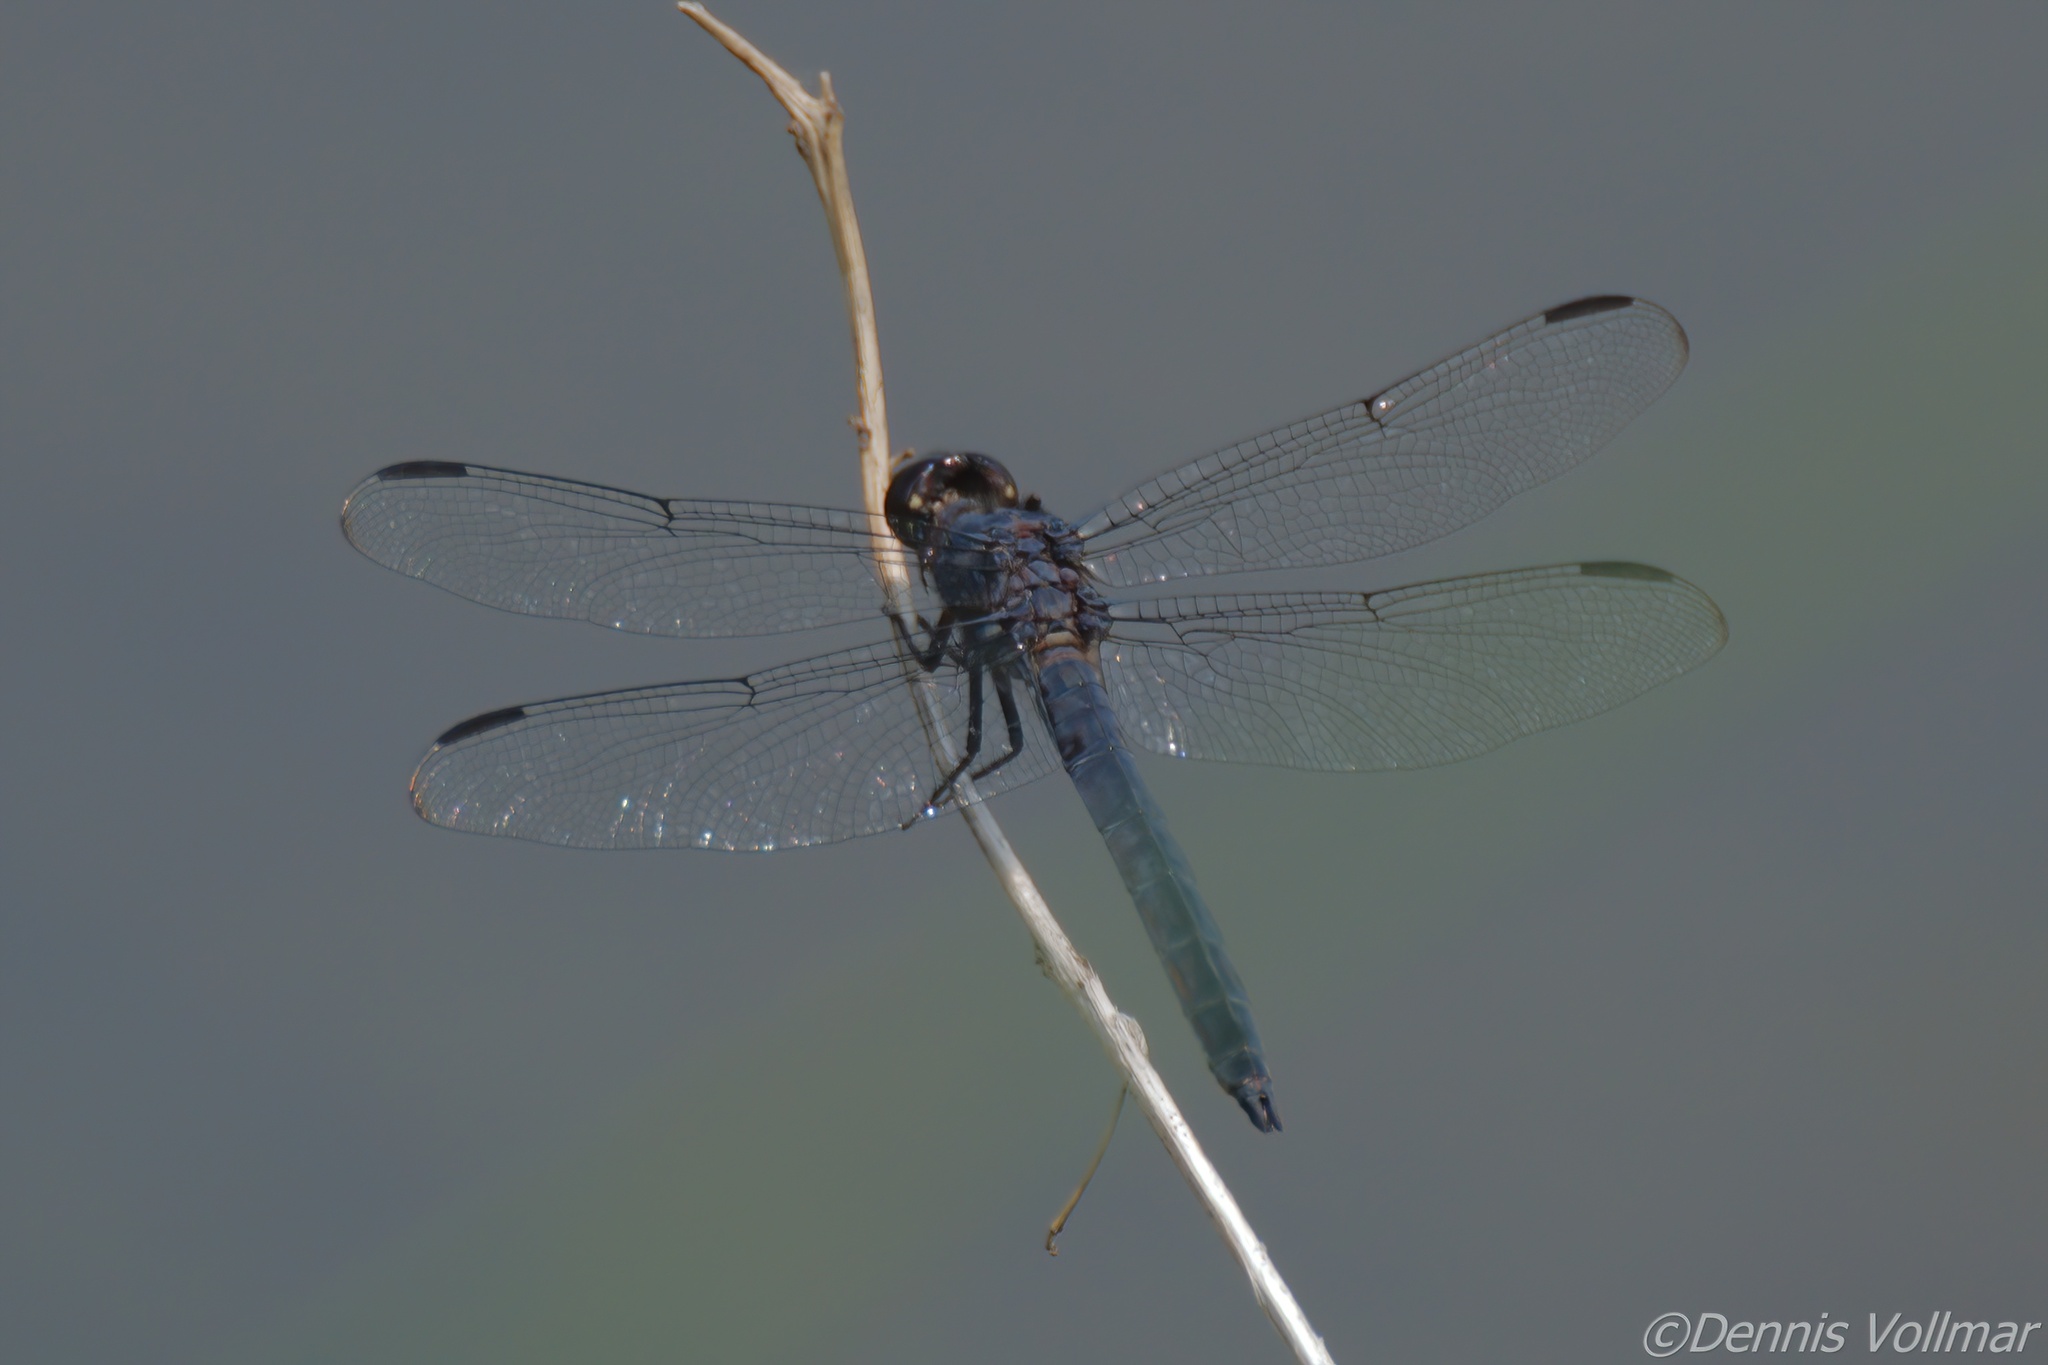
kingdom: Animalia
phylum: Arthropoda
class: Insecta
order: Odonata
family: Libellulidae
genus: Libellula
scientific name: Libellula incesta
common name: Slaty skimmer
